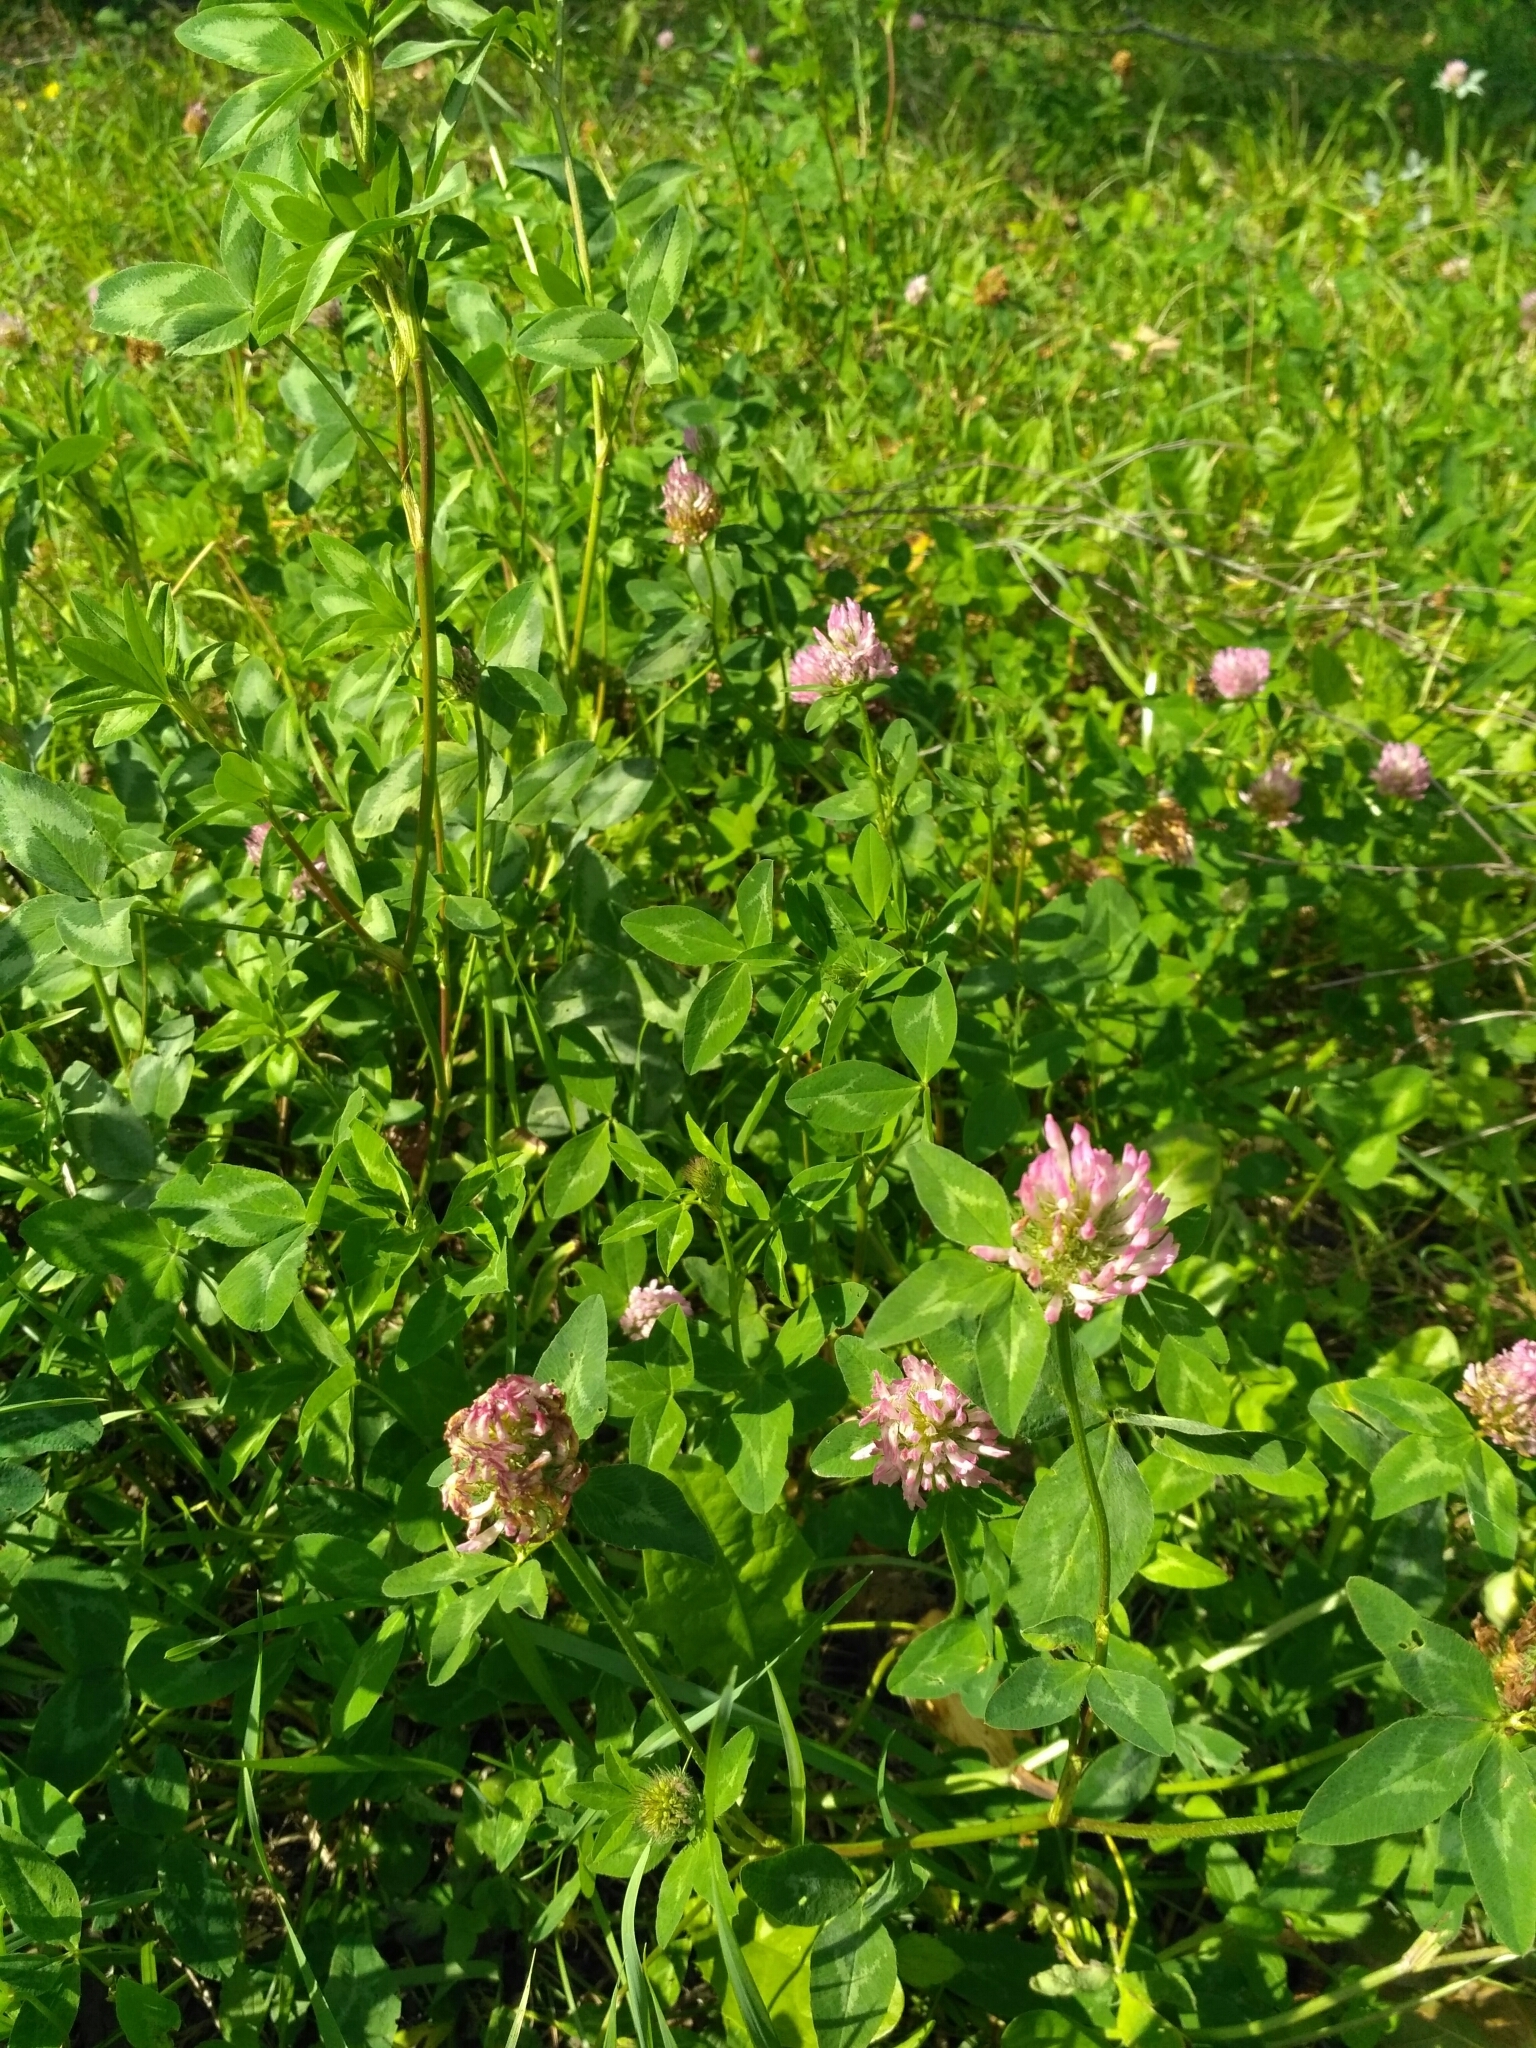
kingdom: Plantae
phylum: Tracheophyta
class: Magnoliopsida
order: Fabales
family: Fabaceae
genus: Trifolium
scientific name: Trifolium pratense
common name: Red clover
